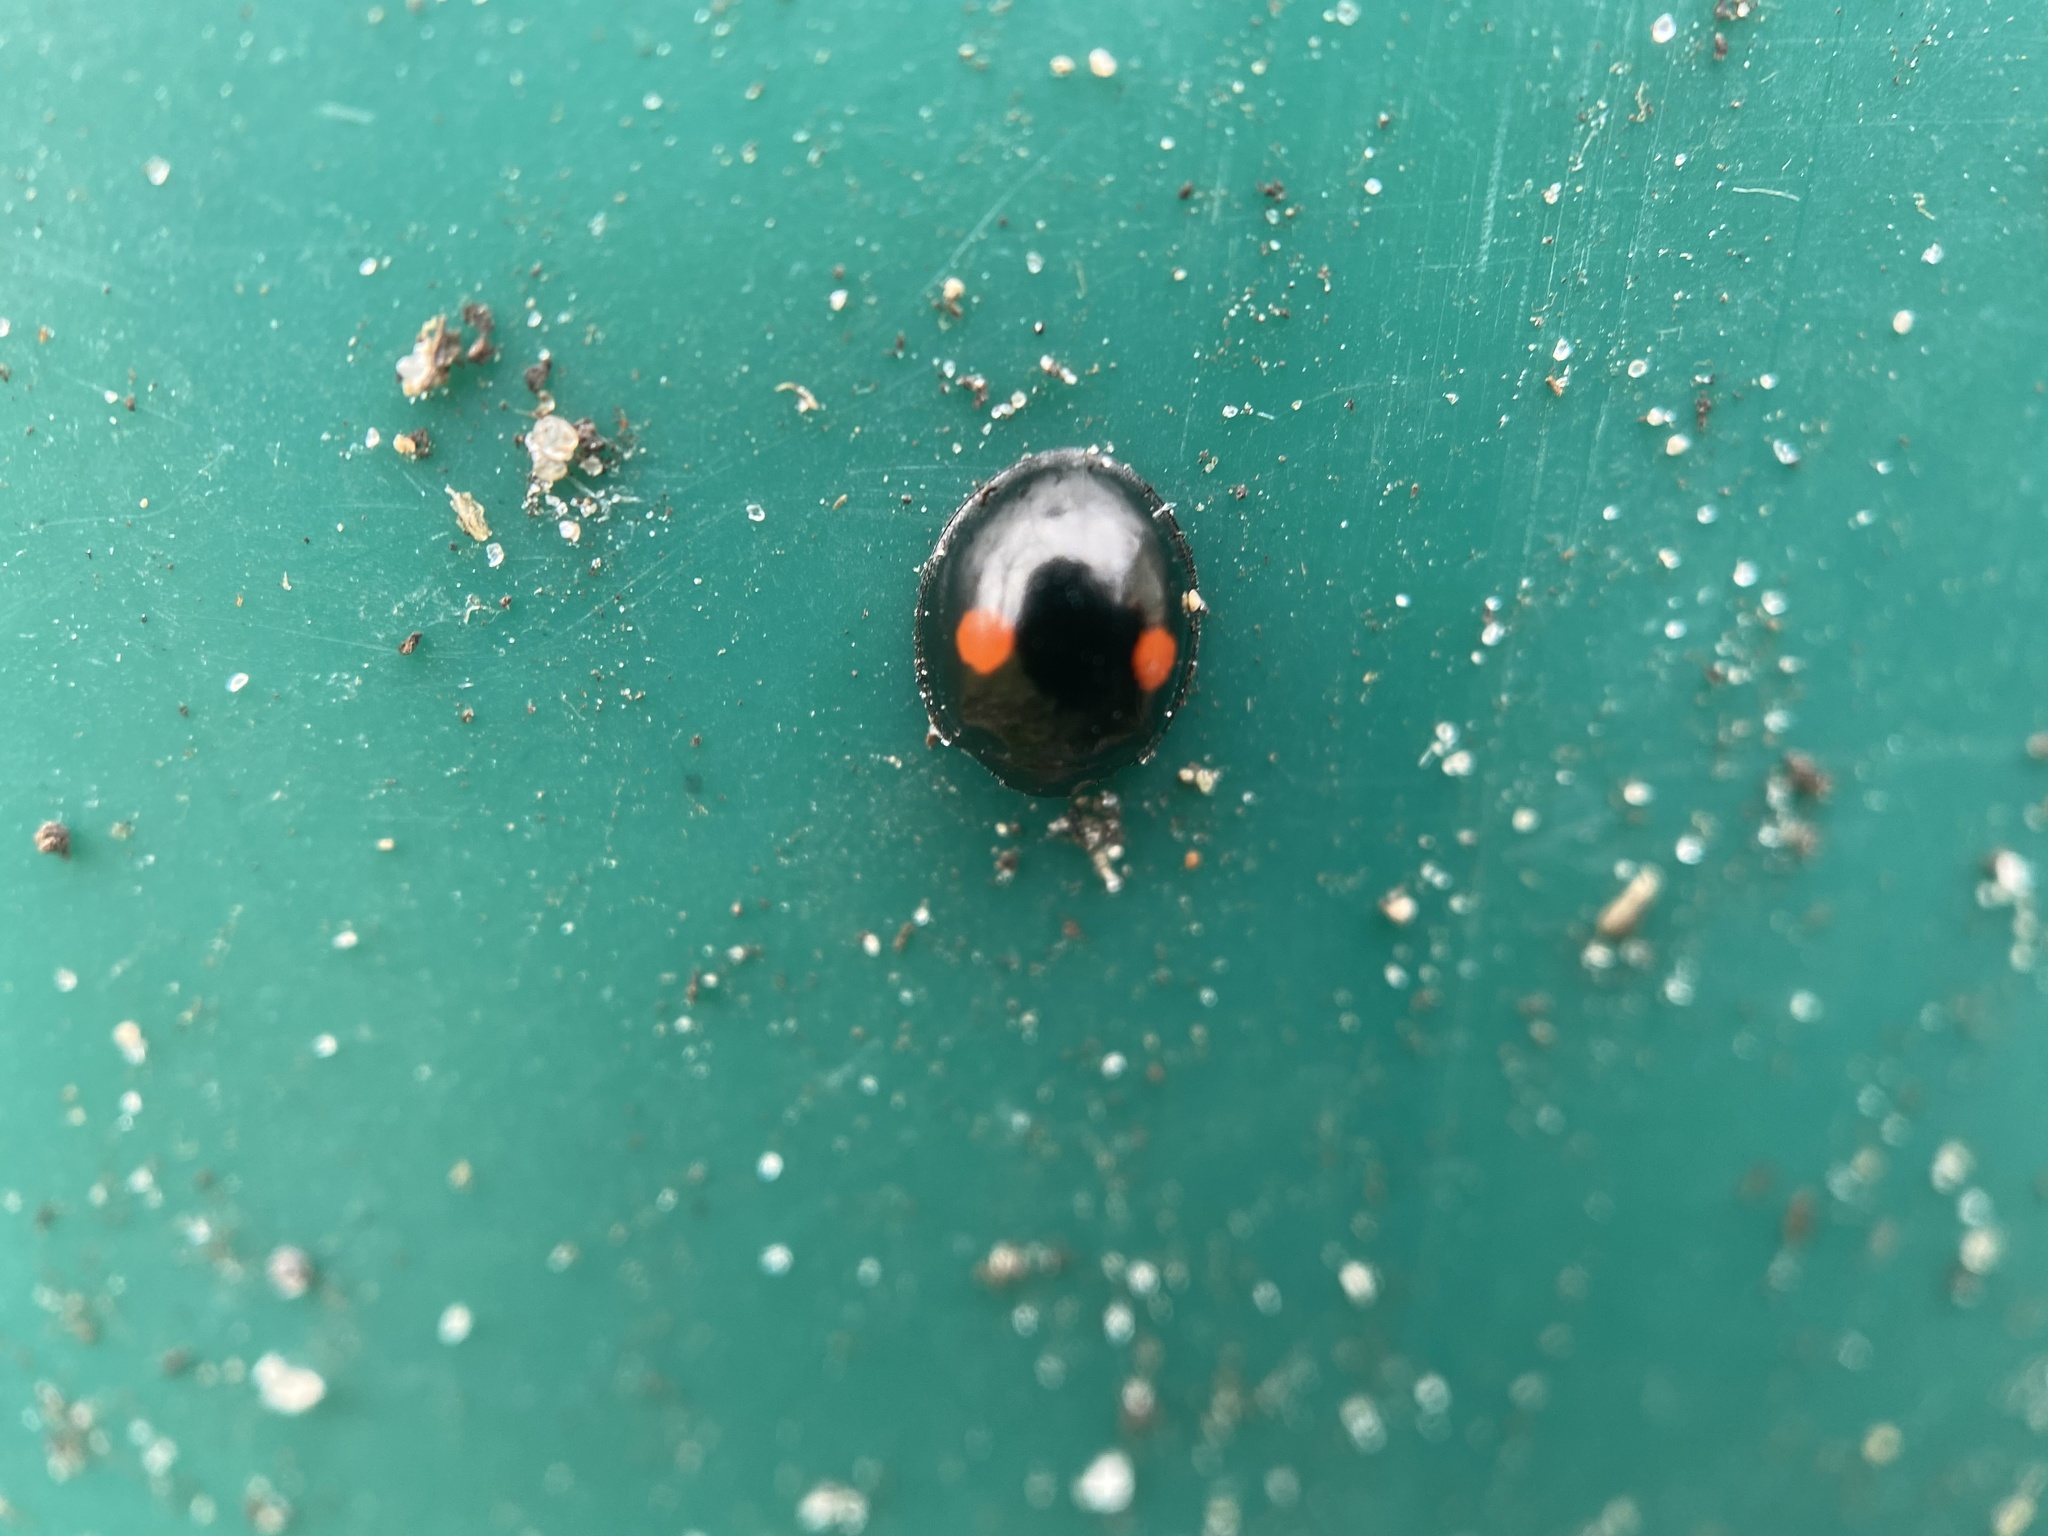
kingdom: Animalia
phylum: Arthropoda
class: Insecta
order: Coleoptera
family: Coccinellidae
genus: Chilocorus
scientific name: Chilocorus stigma
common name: Twicestabbed lady beetle
